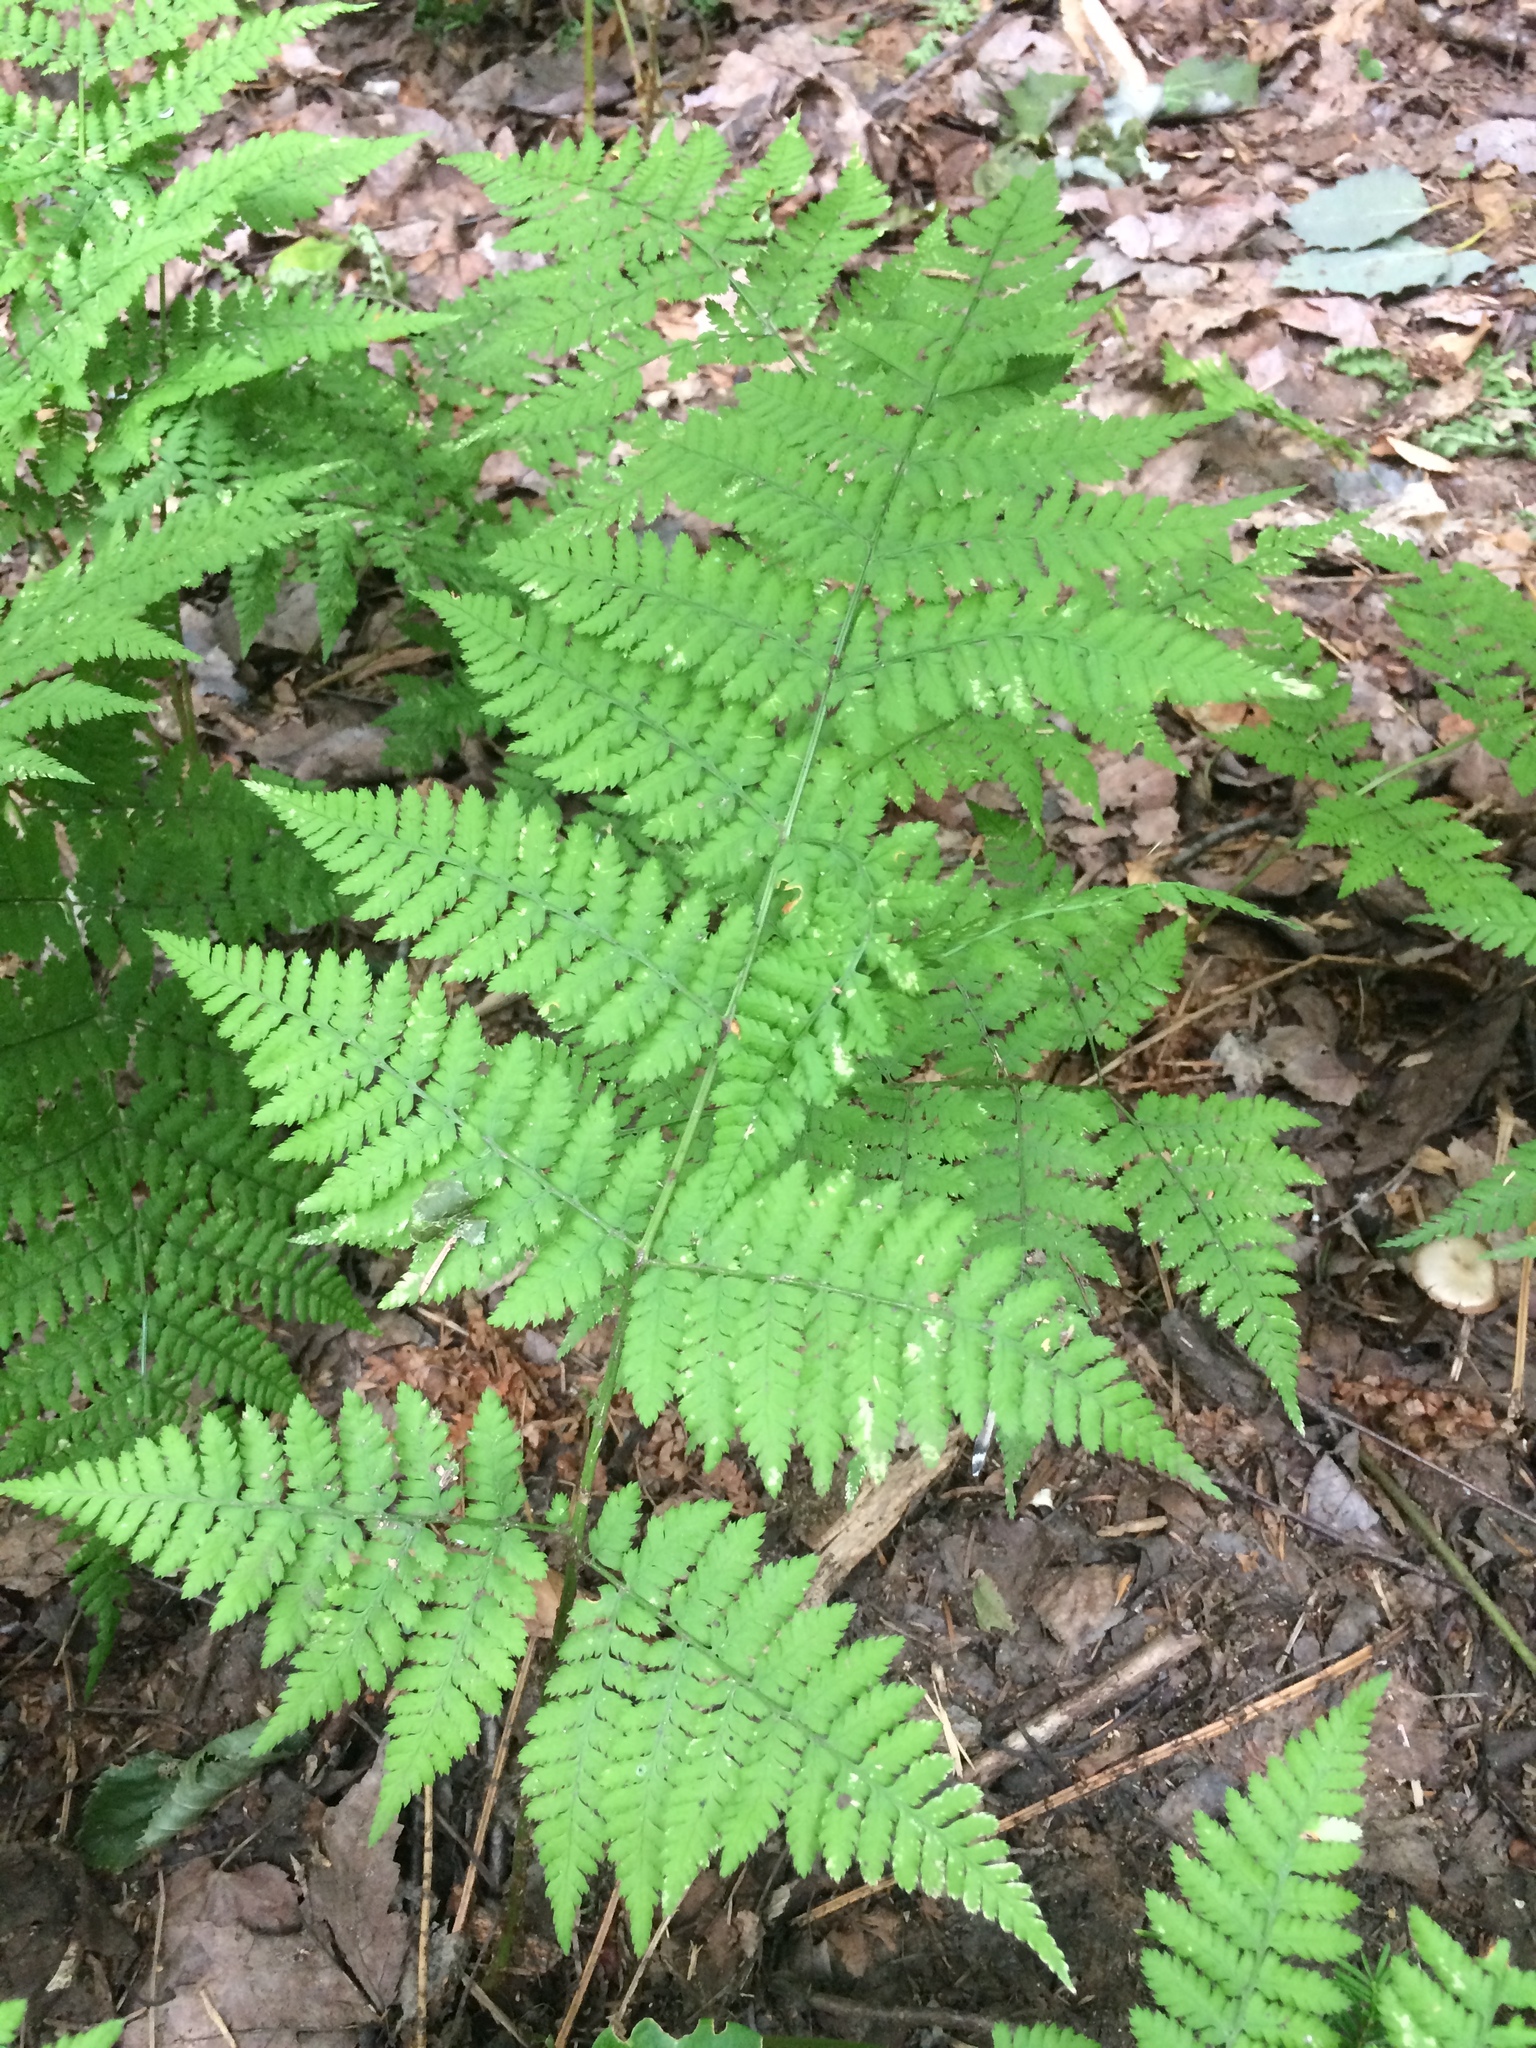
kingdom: Plantae
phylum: Tracheophyta
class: Polypodiopsida
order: Polypodiales
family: Dryopteridaceae
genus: Dryopteris
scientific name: Dryopteris campyloptera
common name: Mountain wood fern
